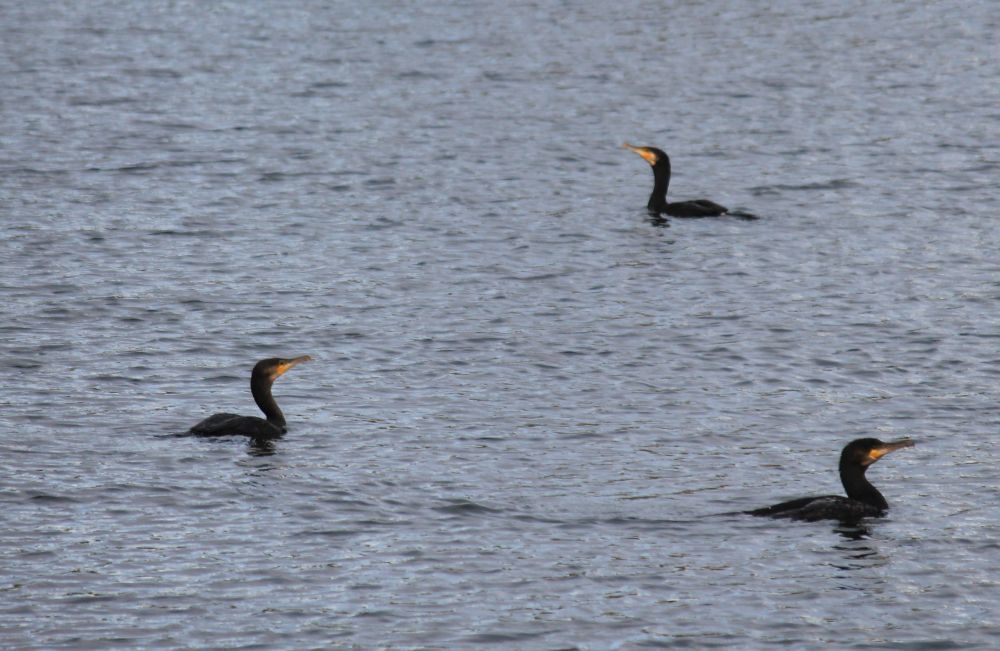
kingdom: Animalia
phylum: Chordata
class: Aves
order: Suliformes
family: Phalacrocoracidae
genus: Phalacrocorax
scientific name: Phalacrocorax carbo
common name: Great cormorant
